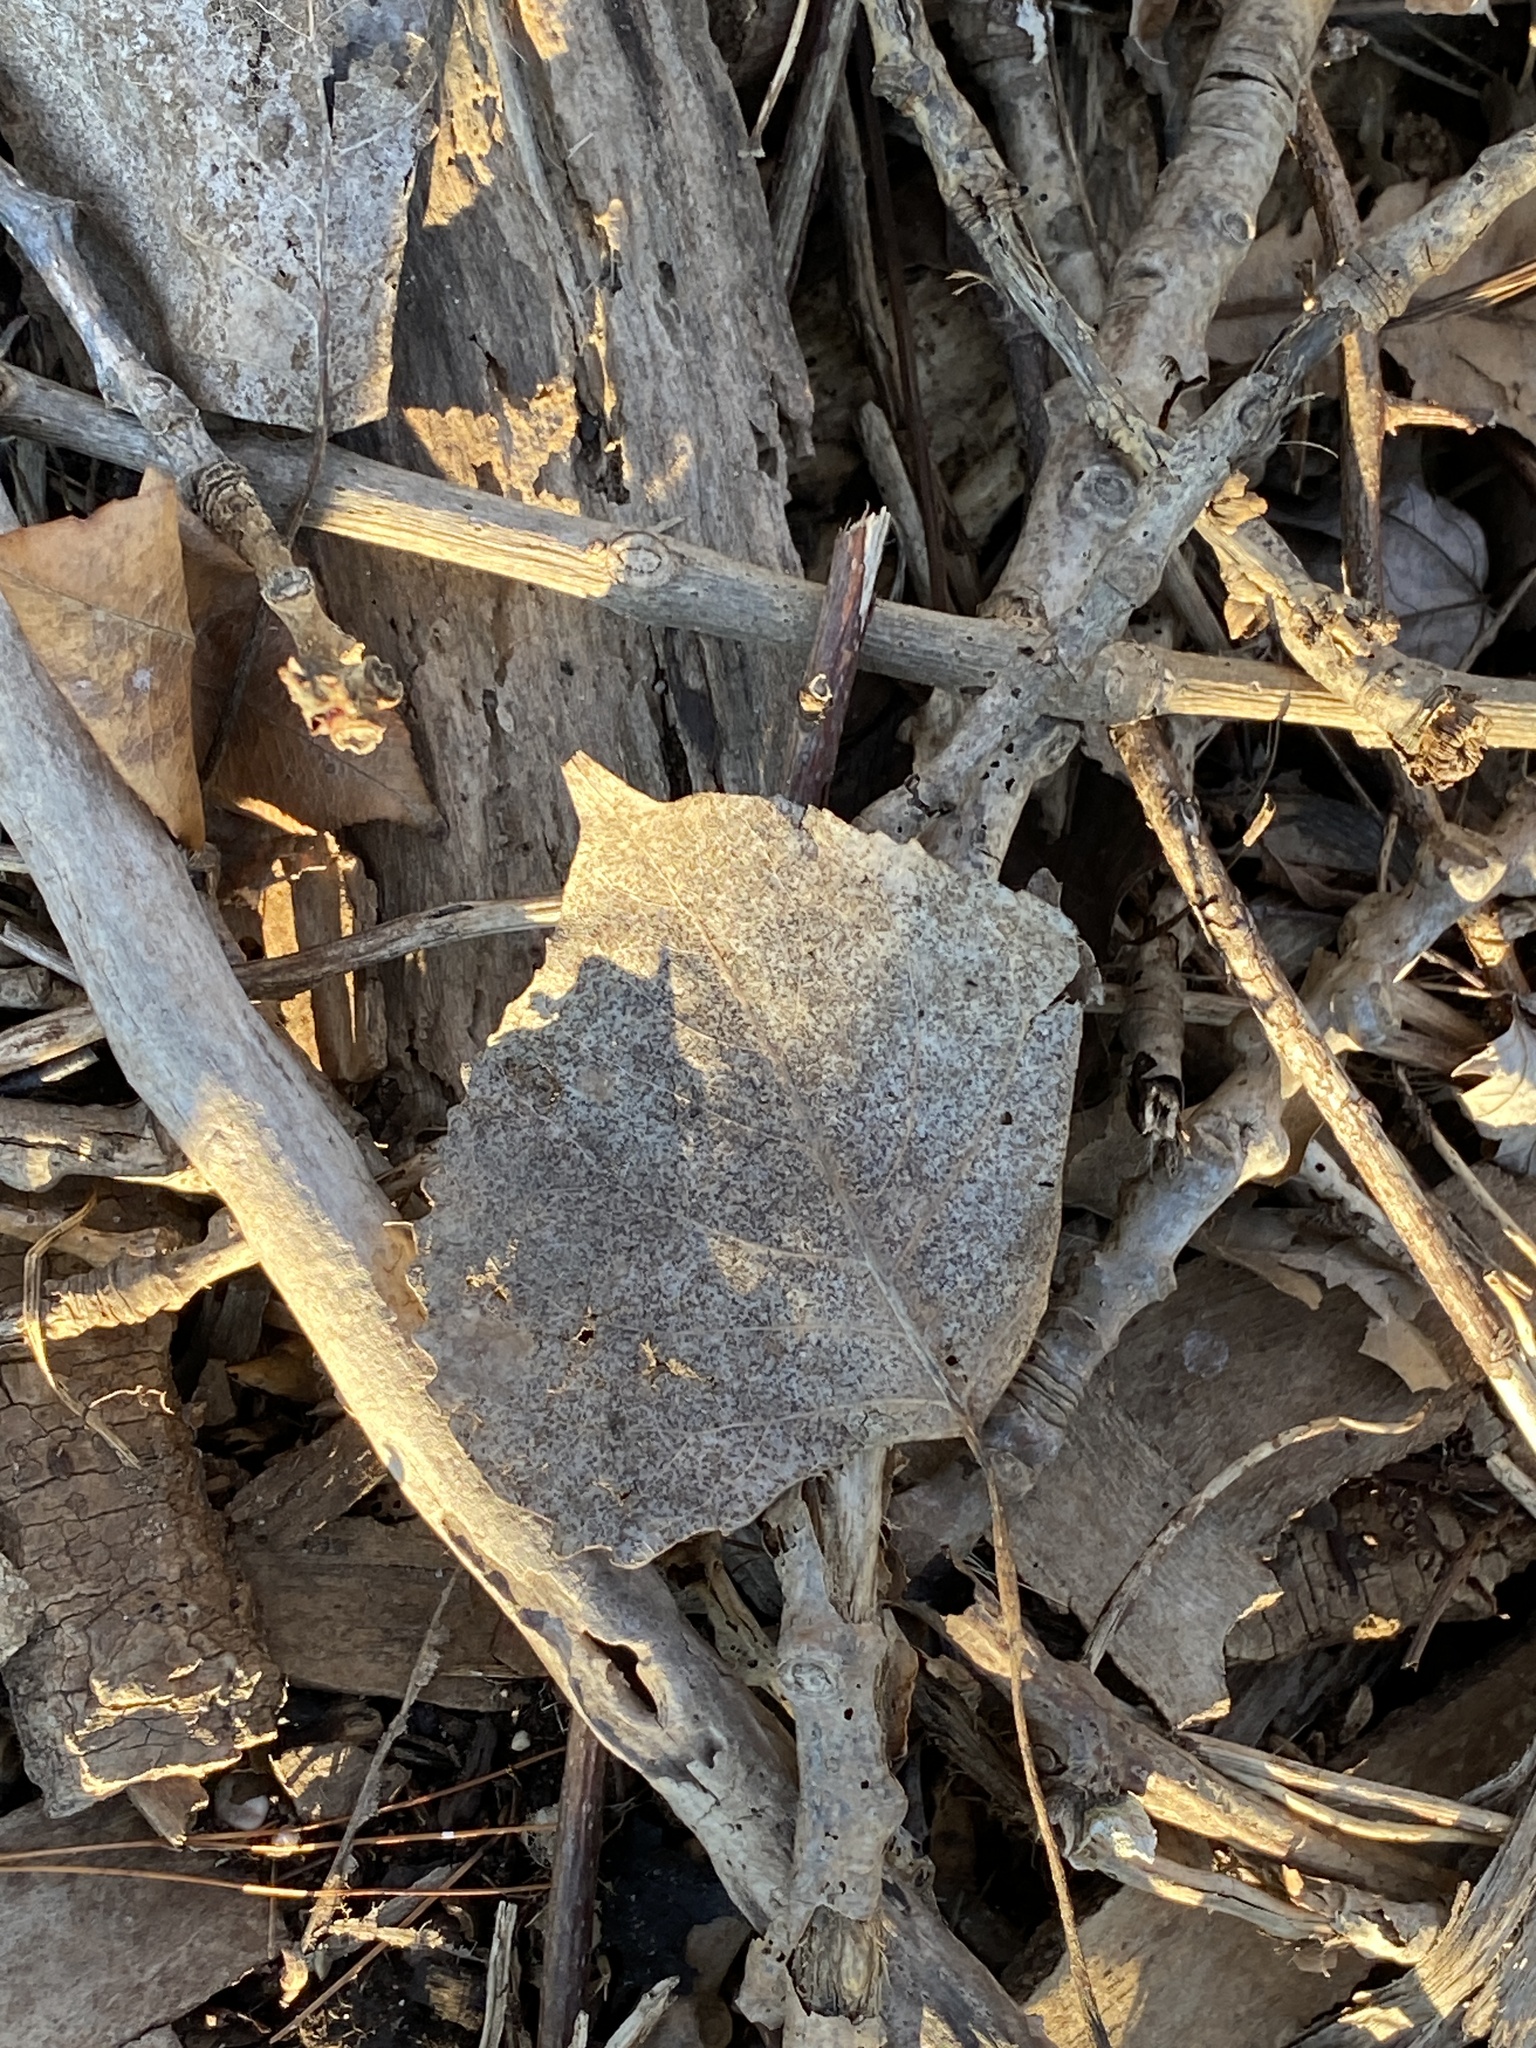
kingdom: Plantae
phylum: Tracheophyta
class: Magnoliopsida
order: Malpighiales
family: Salicaceae
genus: Populus
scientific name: Populus deltoides
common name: Eastern cottonwood
